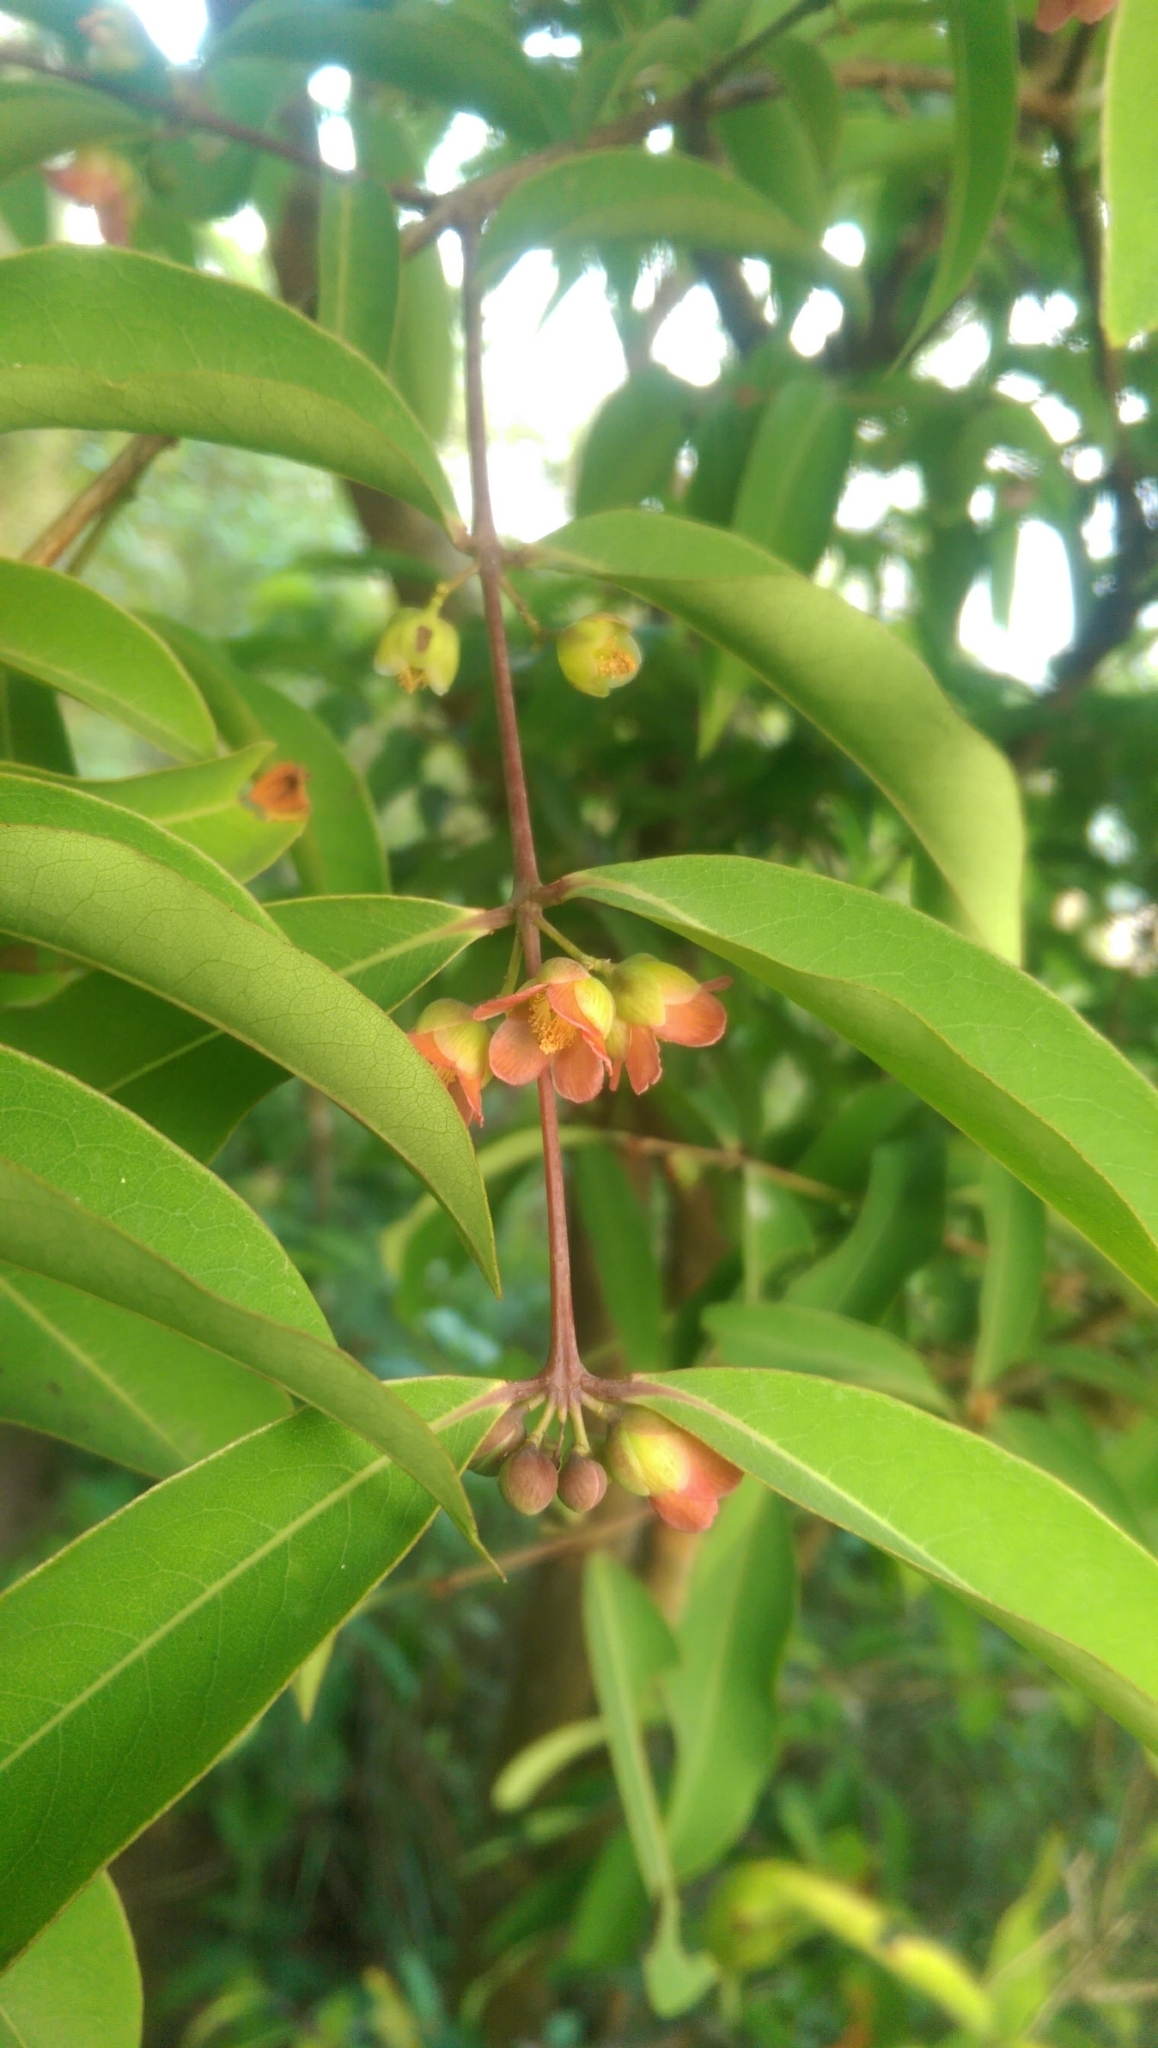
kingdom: Plantae
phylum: Tracheophyta
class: Magnoliopsida
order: Malpighiales
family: Hypericaceae
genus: Cratoxylum
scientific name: Cratoxylum cochinchinense
